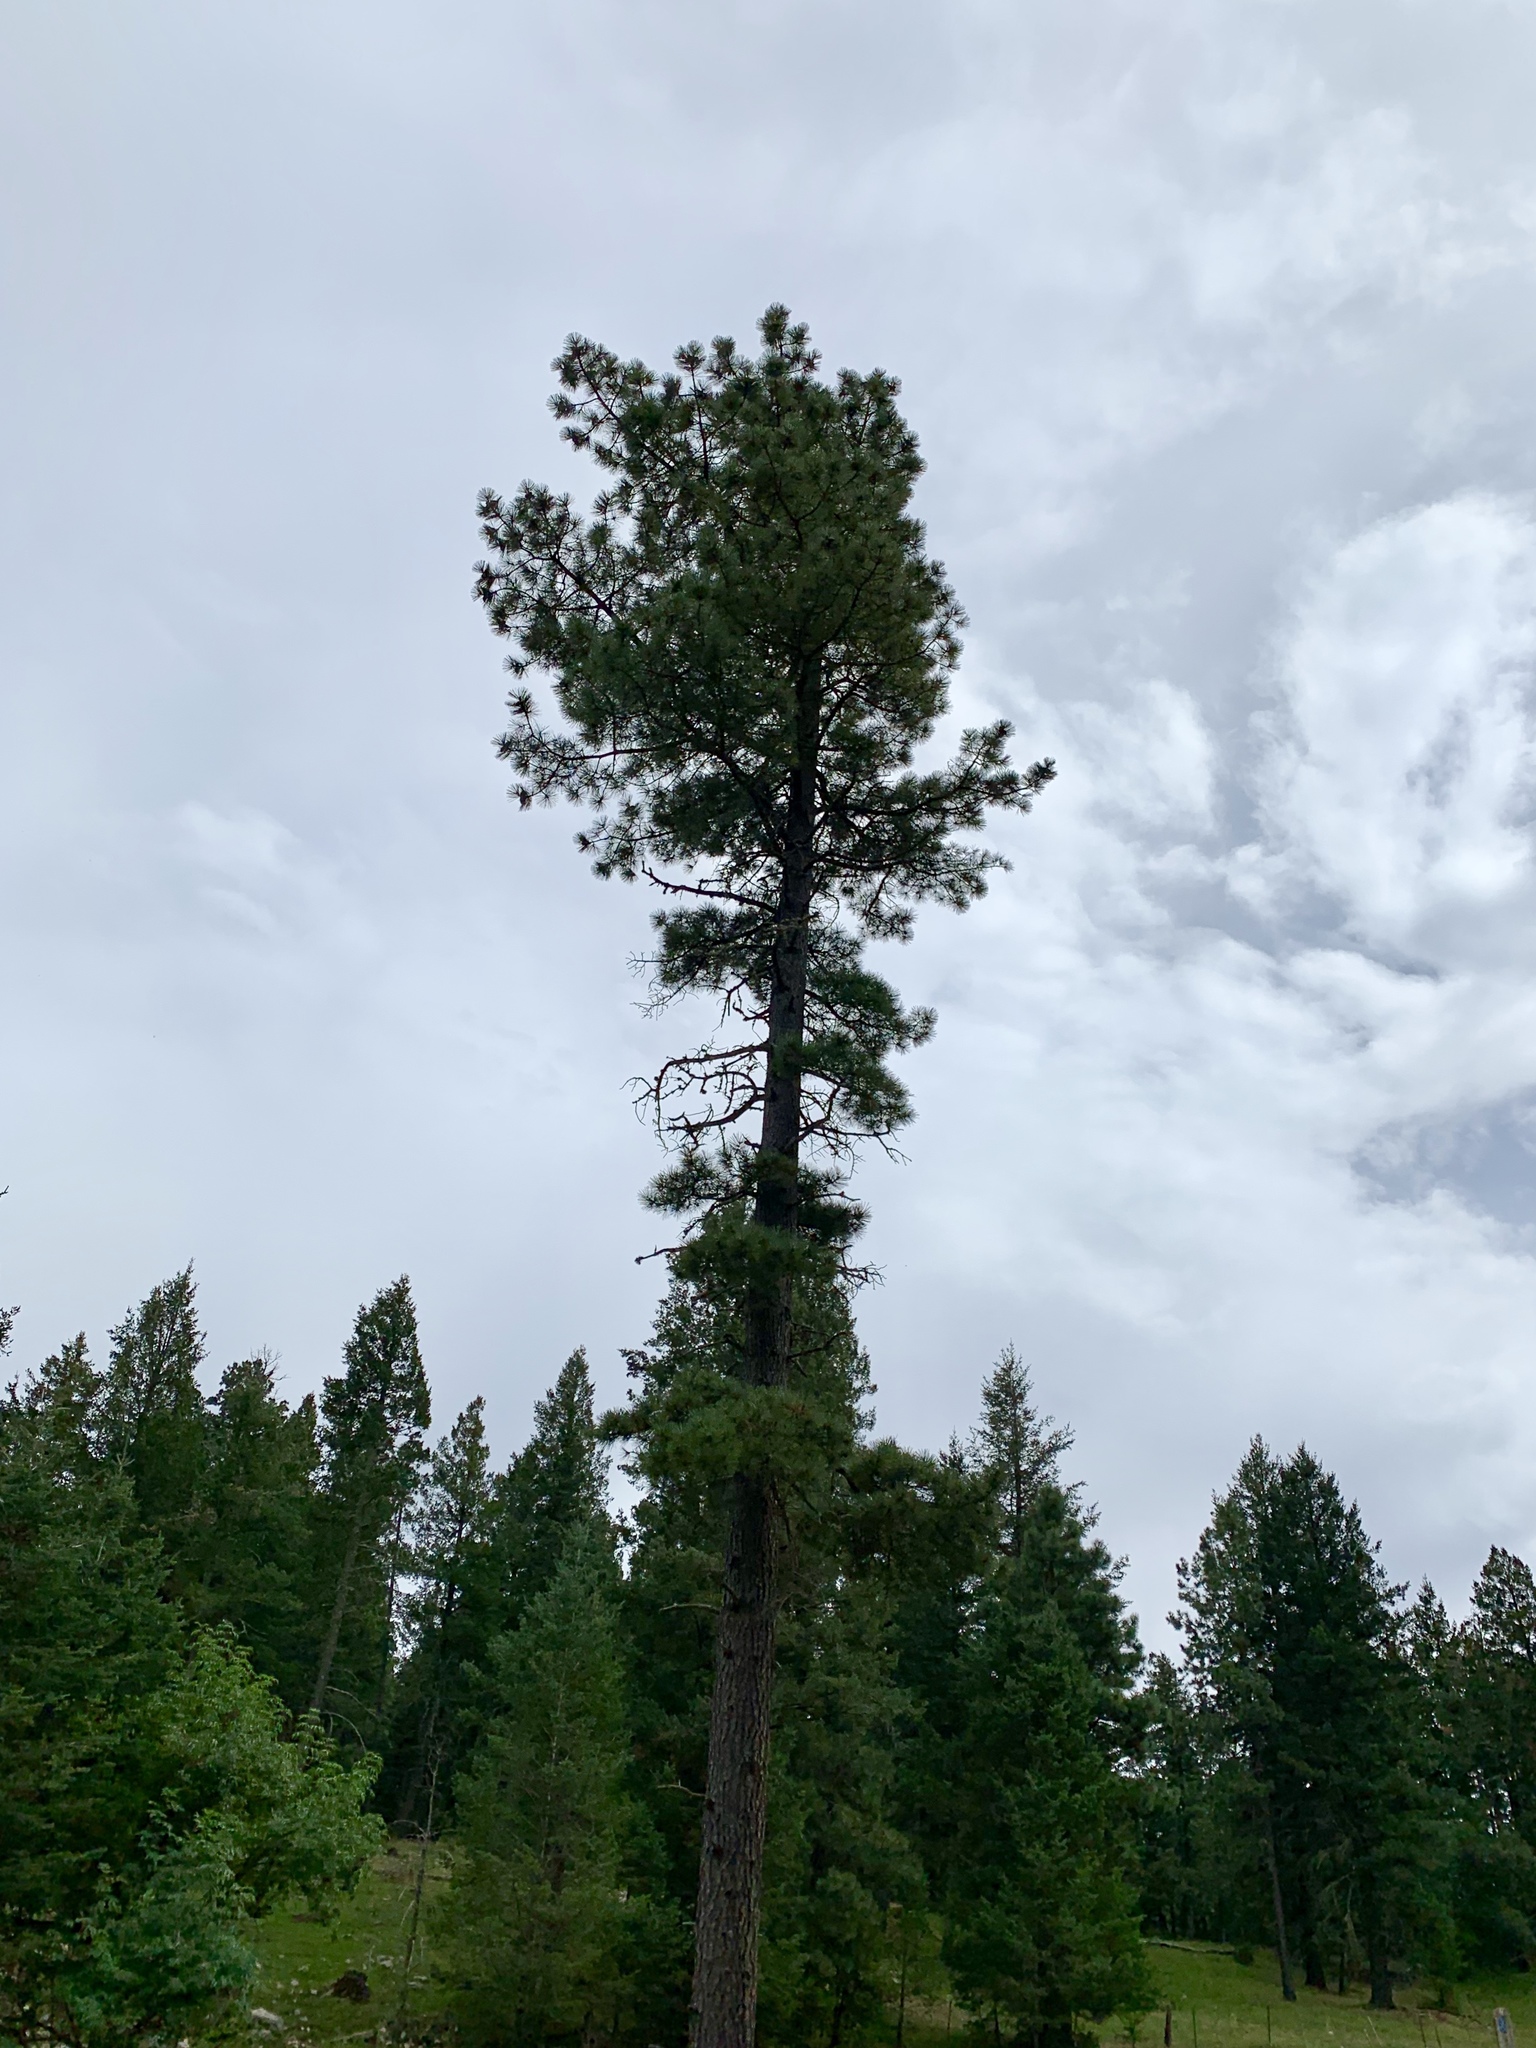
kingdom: Plantae
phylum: Tracheophyta
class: Pinopsida
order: Pinales
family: Pinaceae
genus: Pinus
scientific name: Pinus ponderosa
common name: Western yellow-pine
